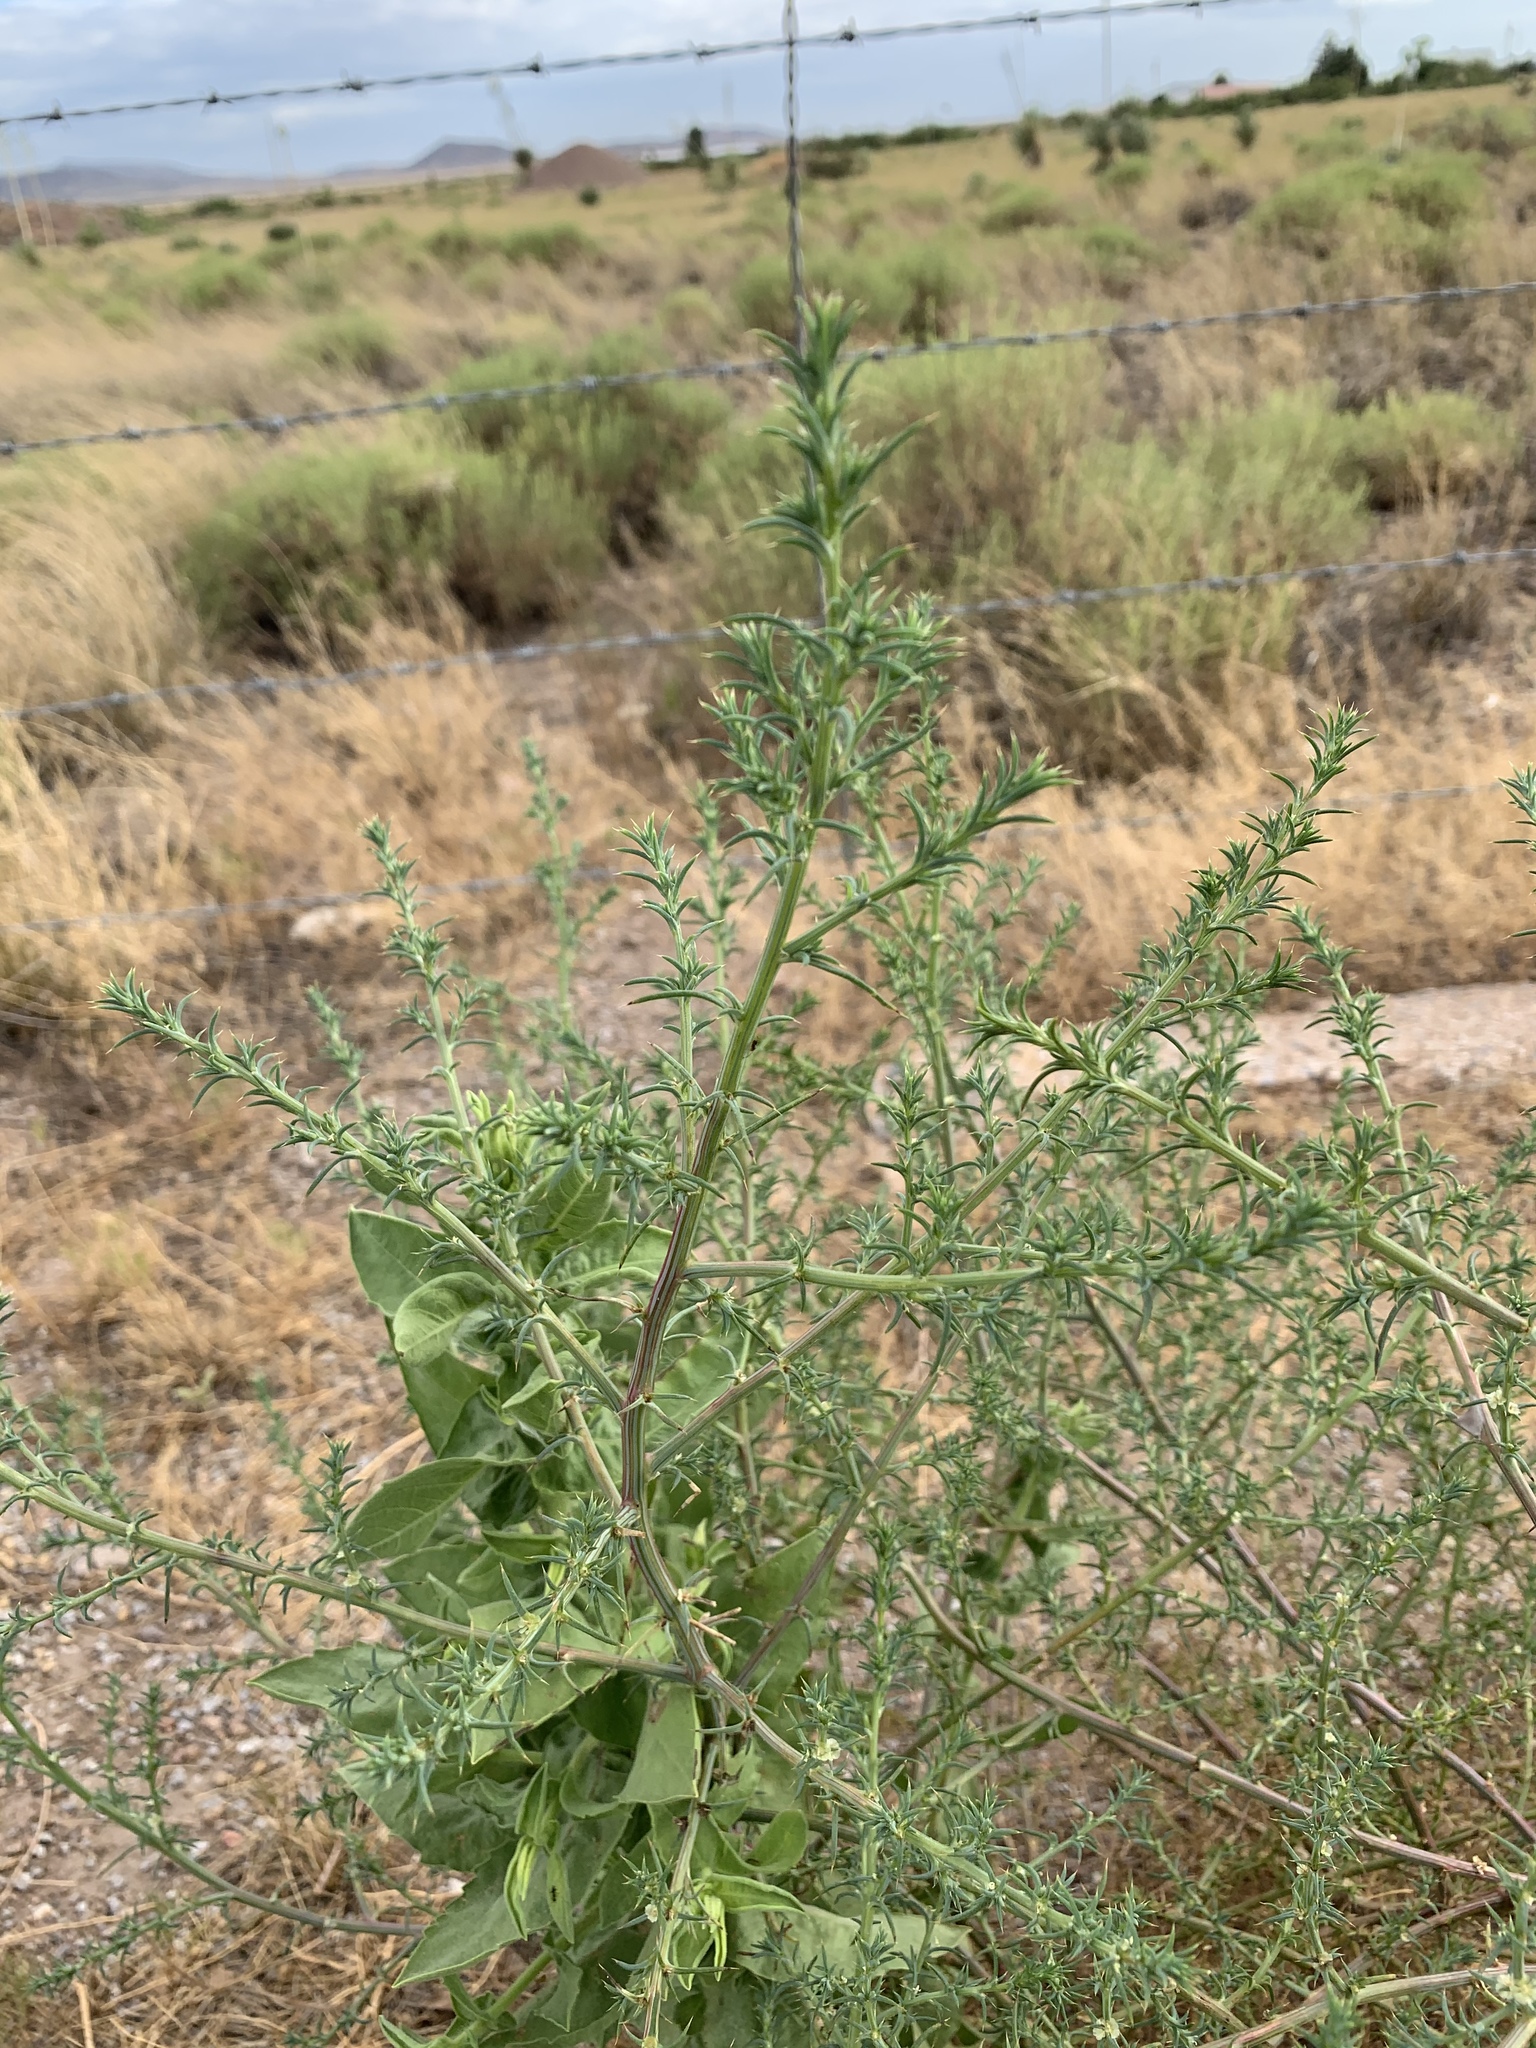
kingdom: Plantae
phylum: Tracheophyta
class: Magnoliopsida
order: Caryophyllales
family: Amaranthaceae
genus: Salsola
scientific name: Salsola tragus
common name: Prickly russian thistle
